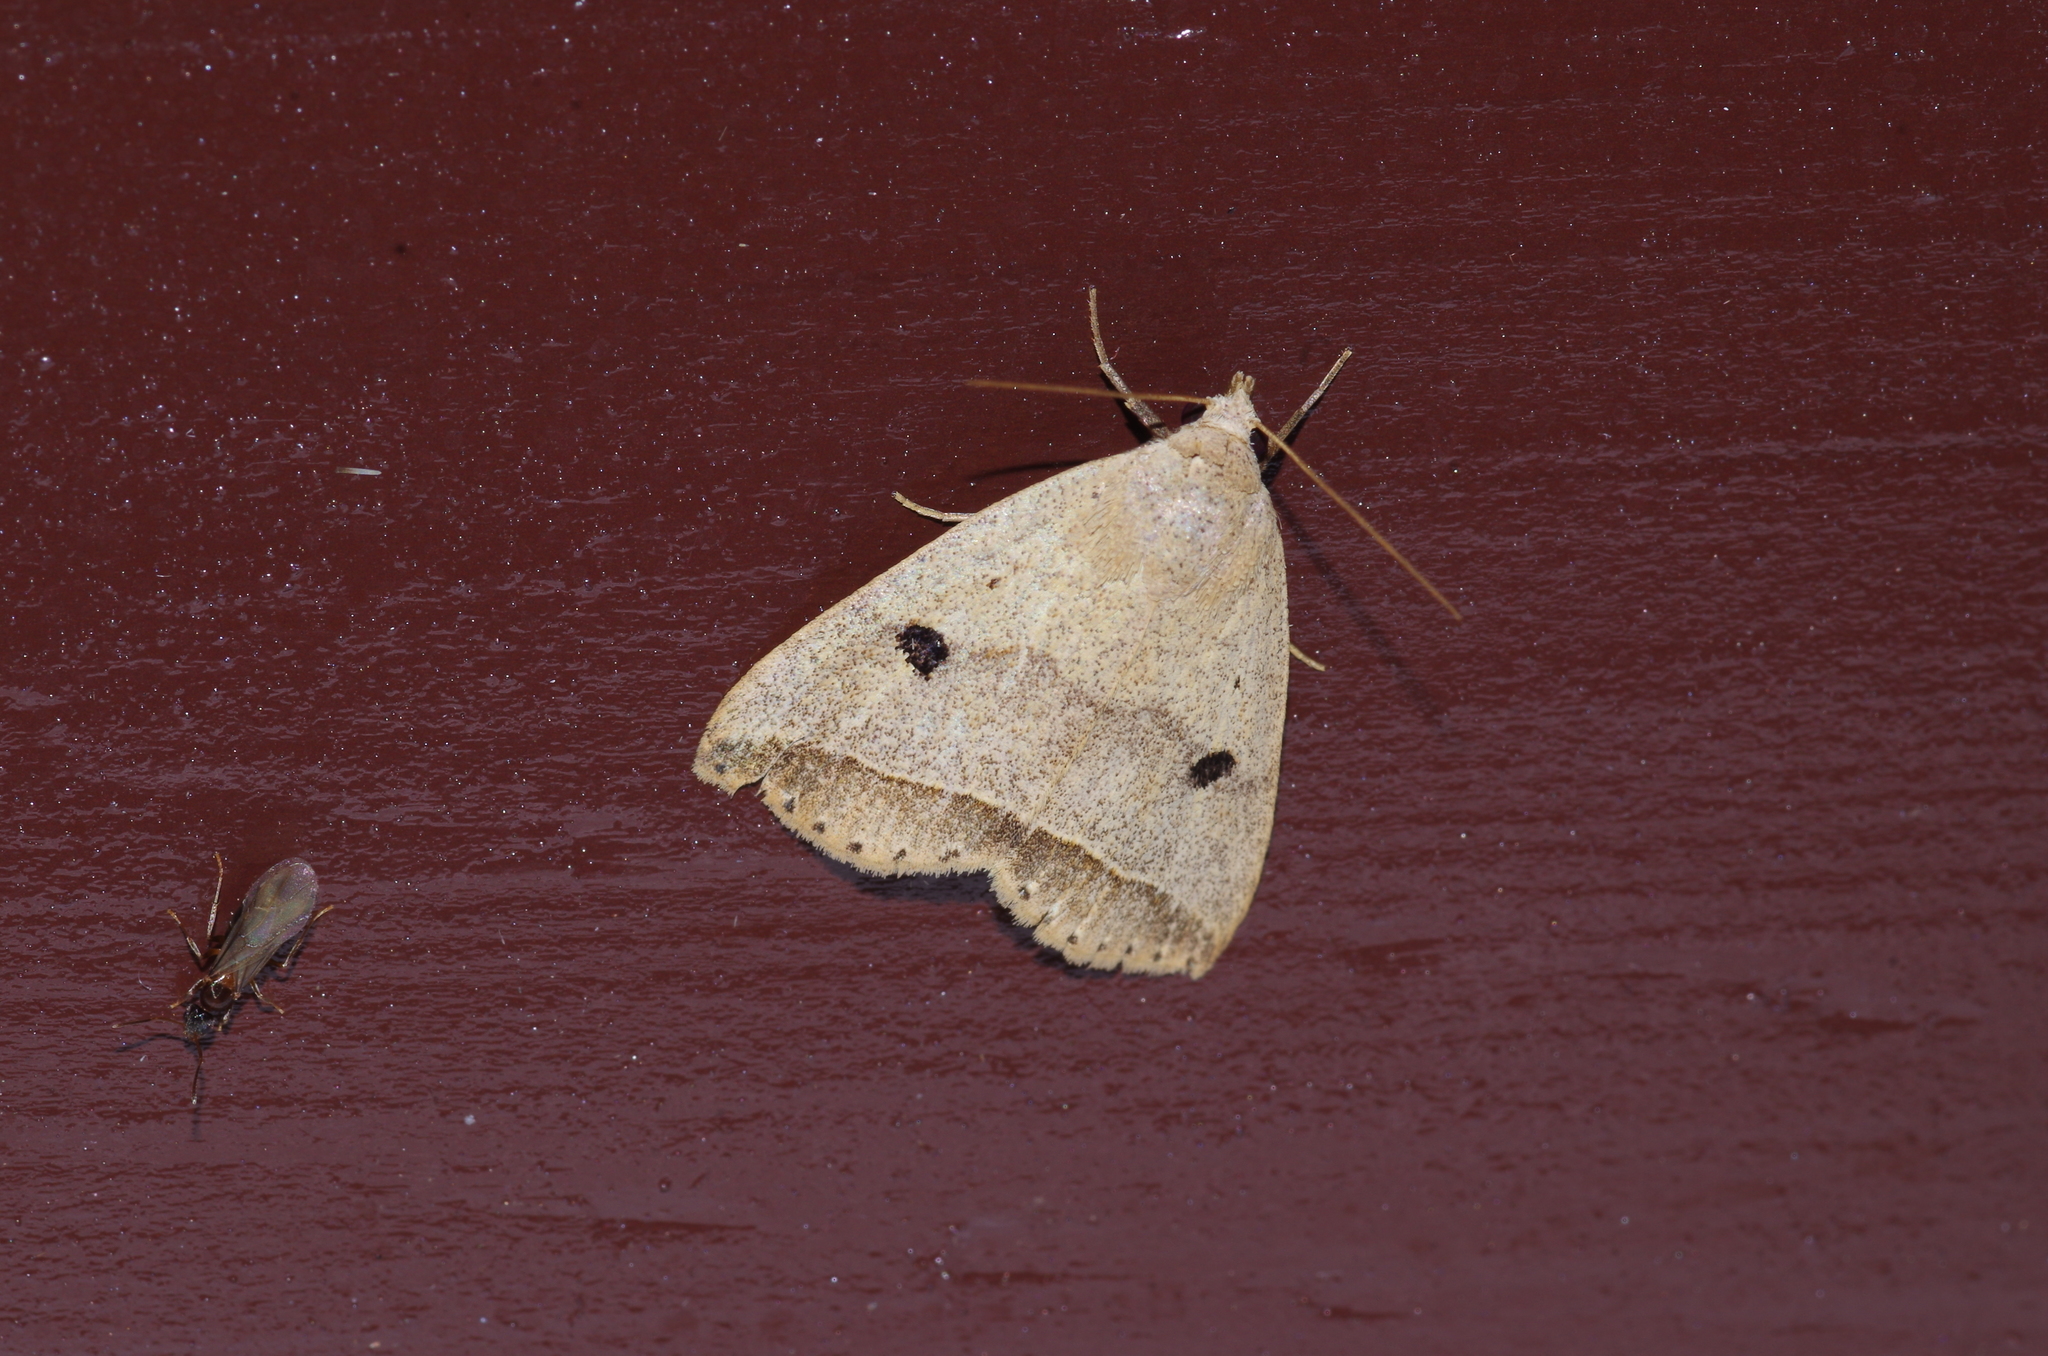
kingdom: Animalia
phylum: Arthropoda
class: Insecta
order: Lepidoptera
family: Erebidae
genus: Bocula
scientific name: Bocula caradrinoides
